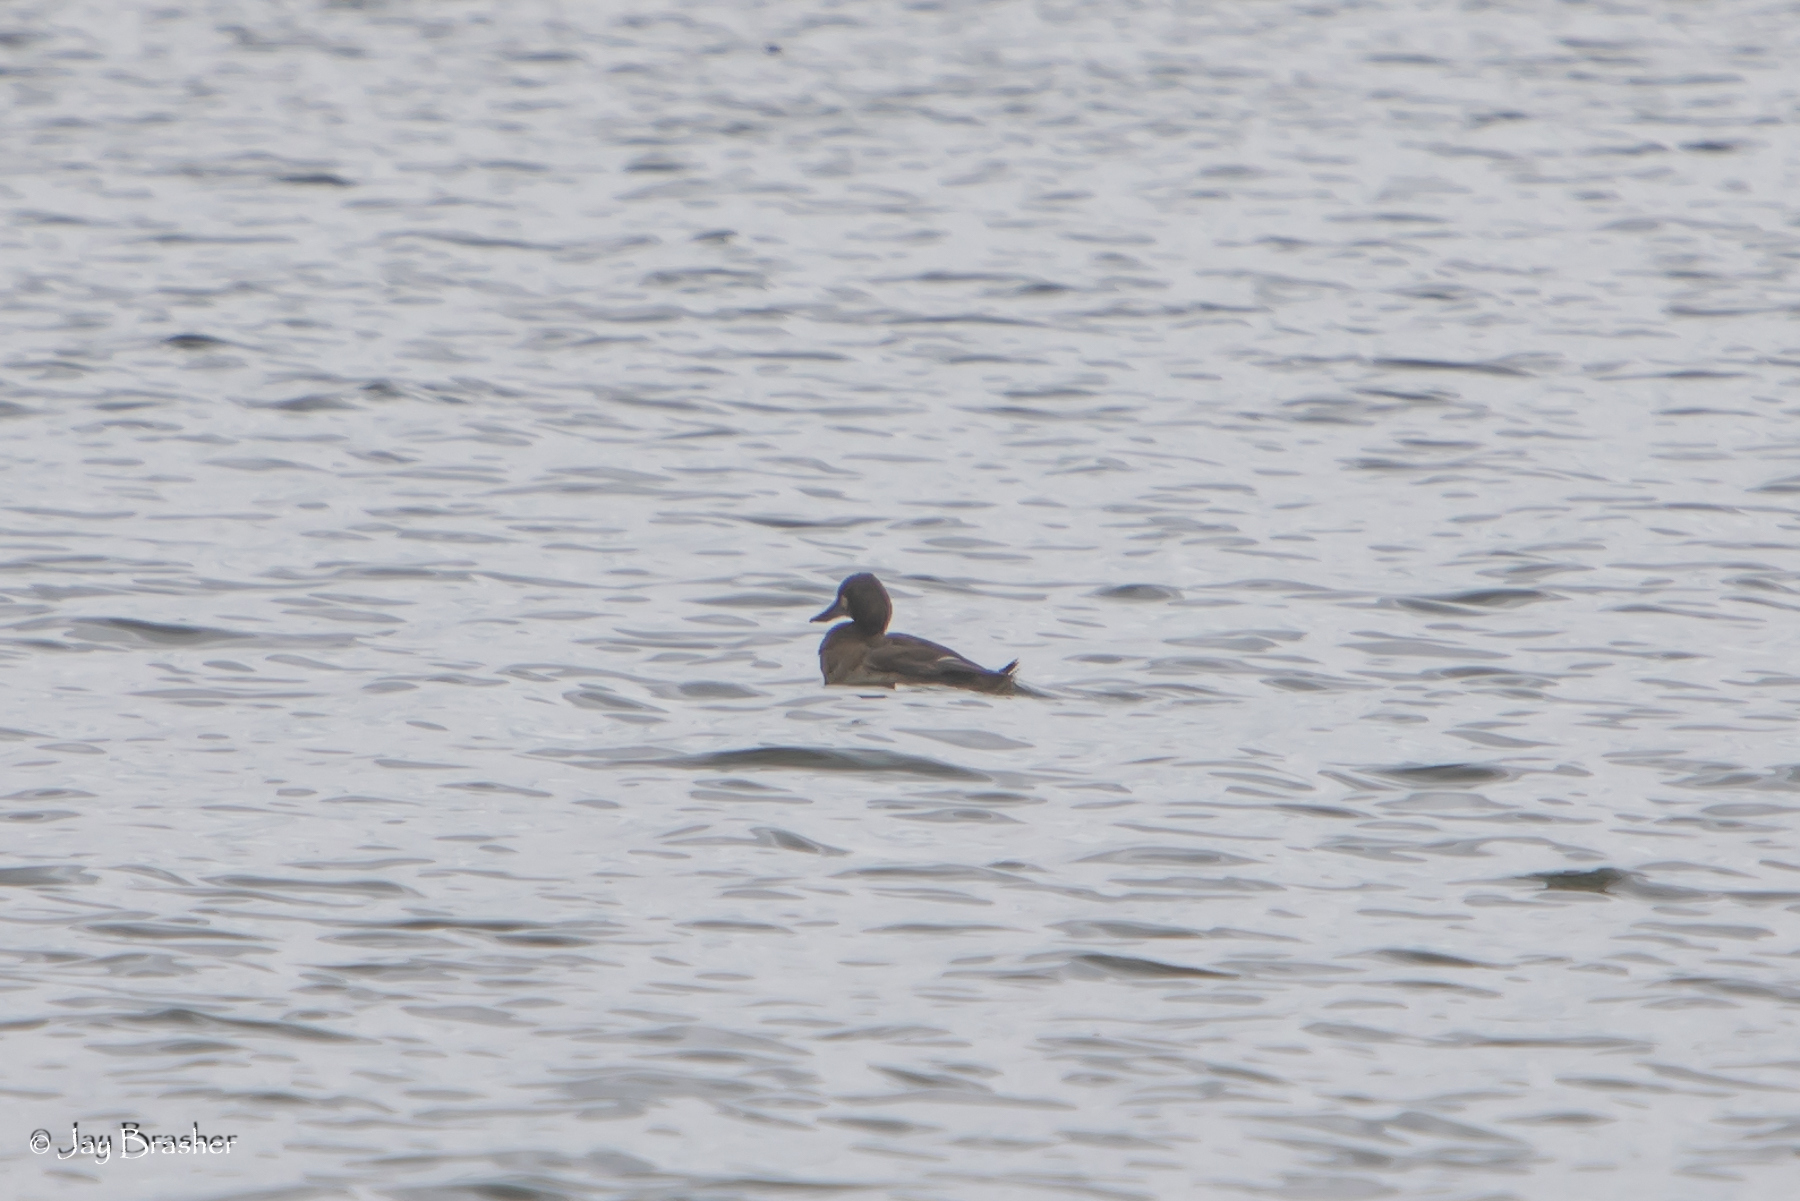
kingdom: Animalia
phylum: Chordata
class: Aves
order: Anseriformes
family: Anatidae
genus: Aythya
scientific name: Aythya affinis
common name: Lesser scaup
